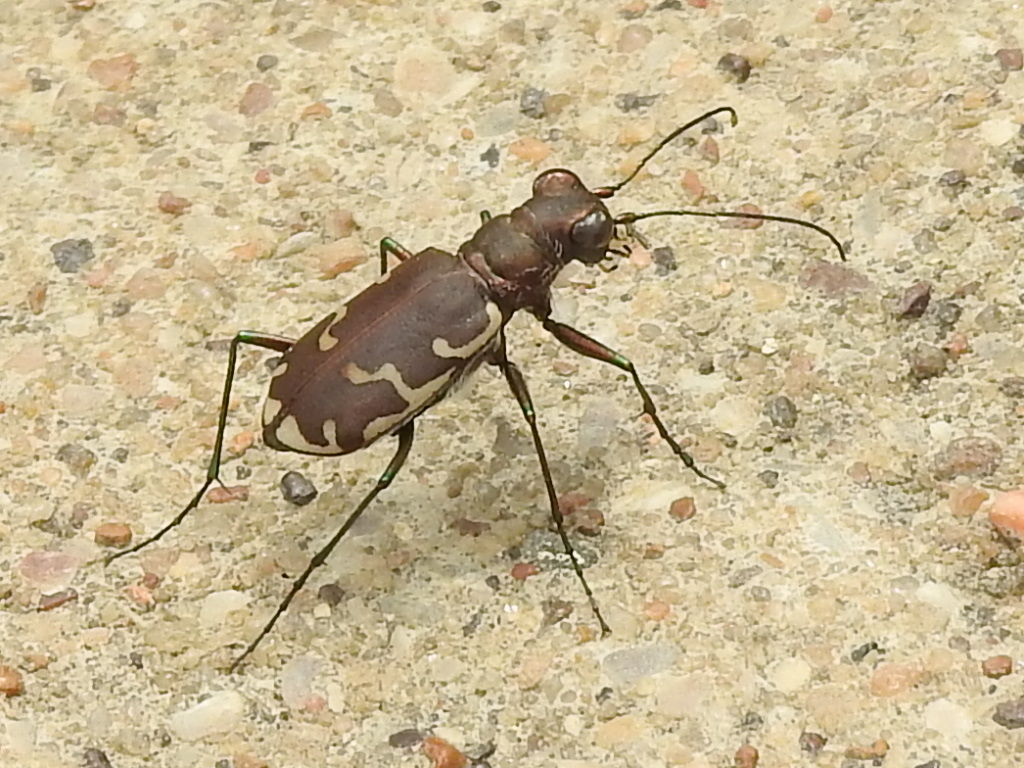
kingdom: Animalia
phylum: Arthropoda
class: Insecta
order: Coleoptera
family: Carabidae
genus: Cicindela
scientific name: Cicindela repanda
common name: Bronzed tiger beetle
